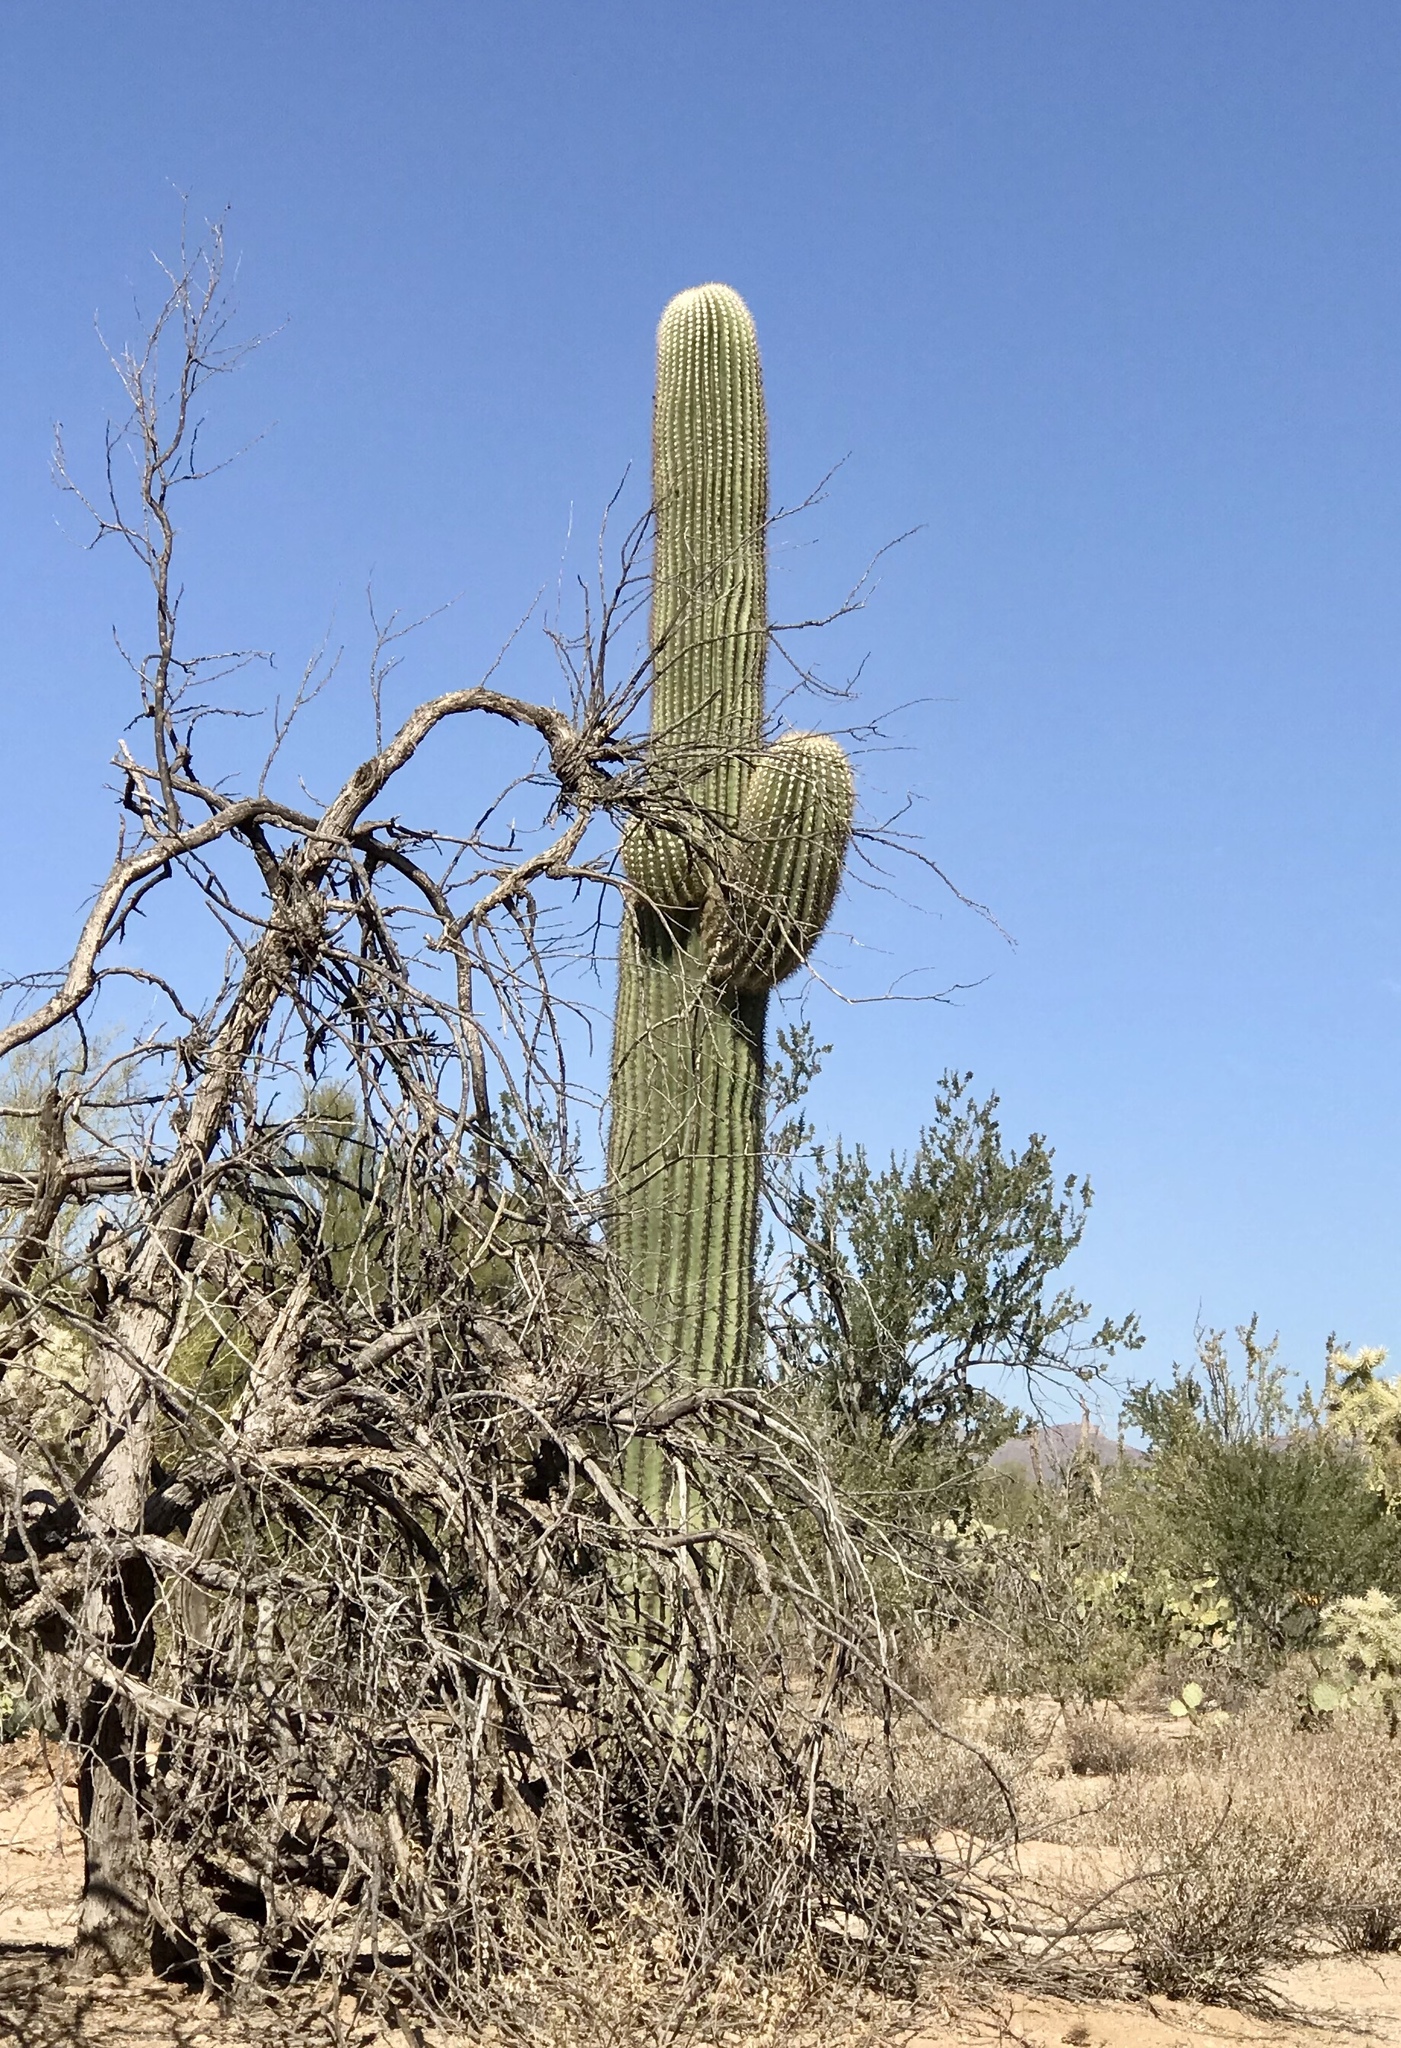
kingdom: Plantae
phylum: Tracheophyta
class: Magnoliopsida
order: Caryophyllales
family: Cactaceae
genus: Carnegiea
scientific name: Carnegiea gigantea
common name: Saguaro
